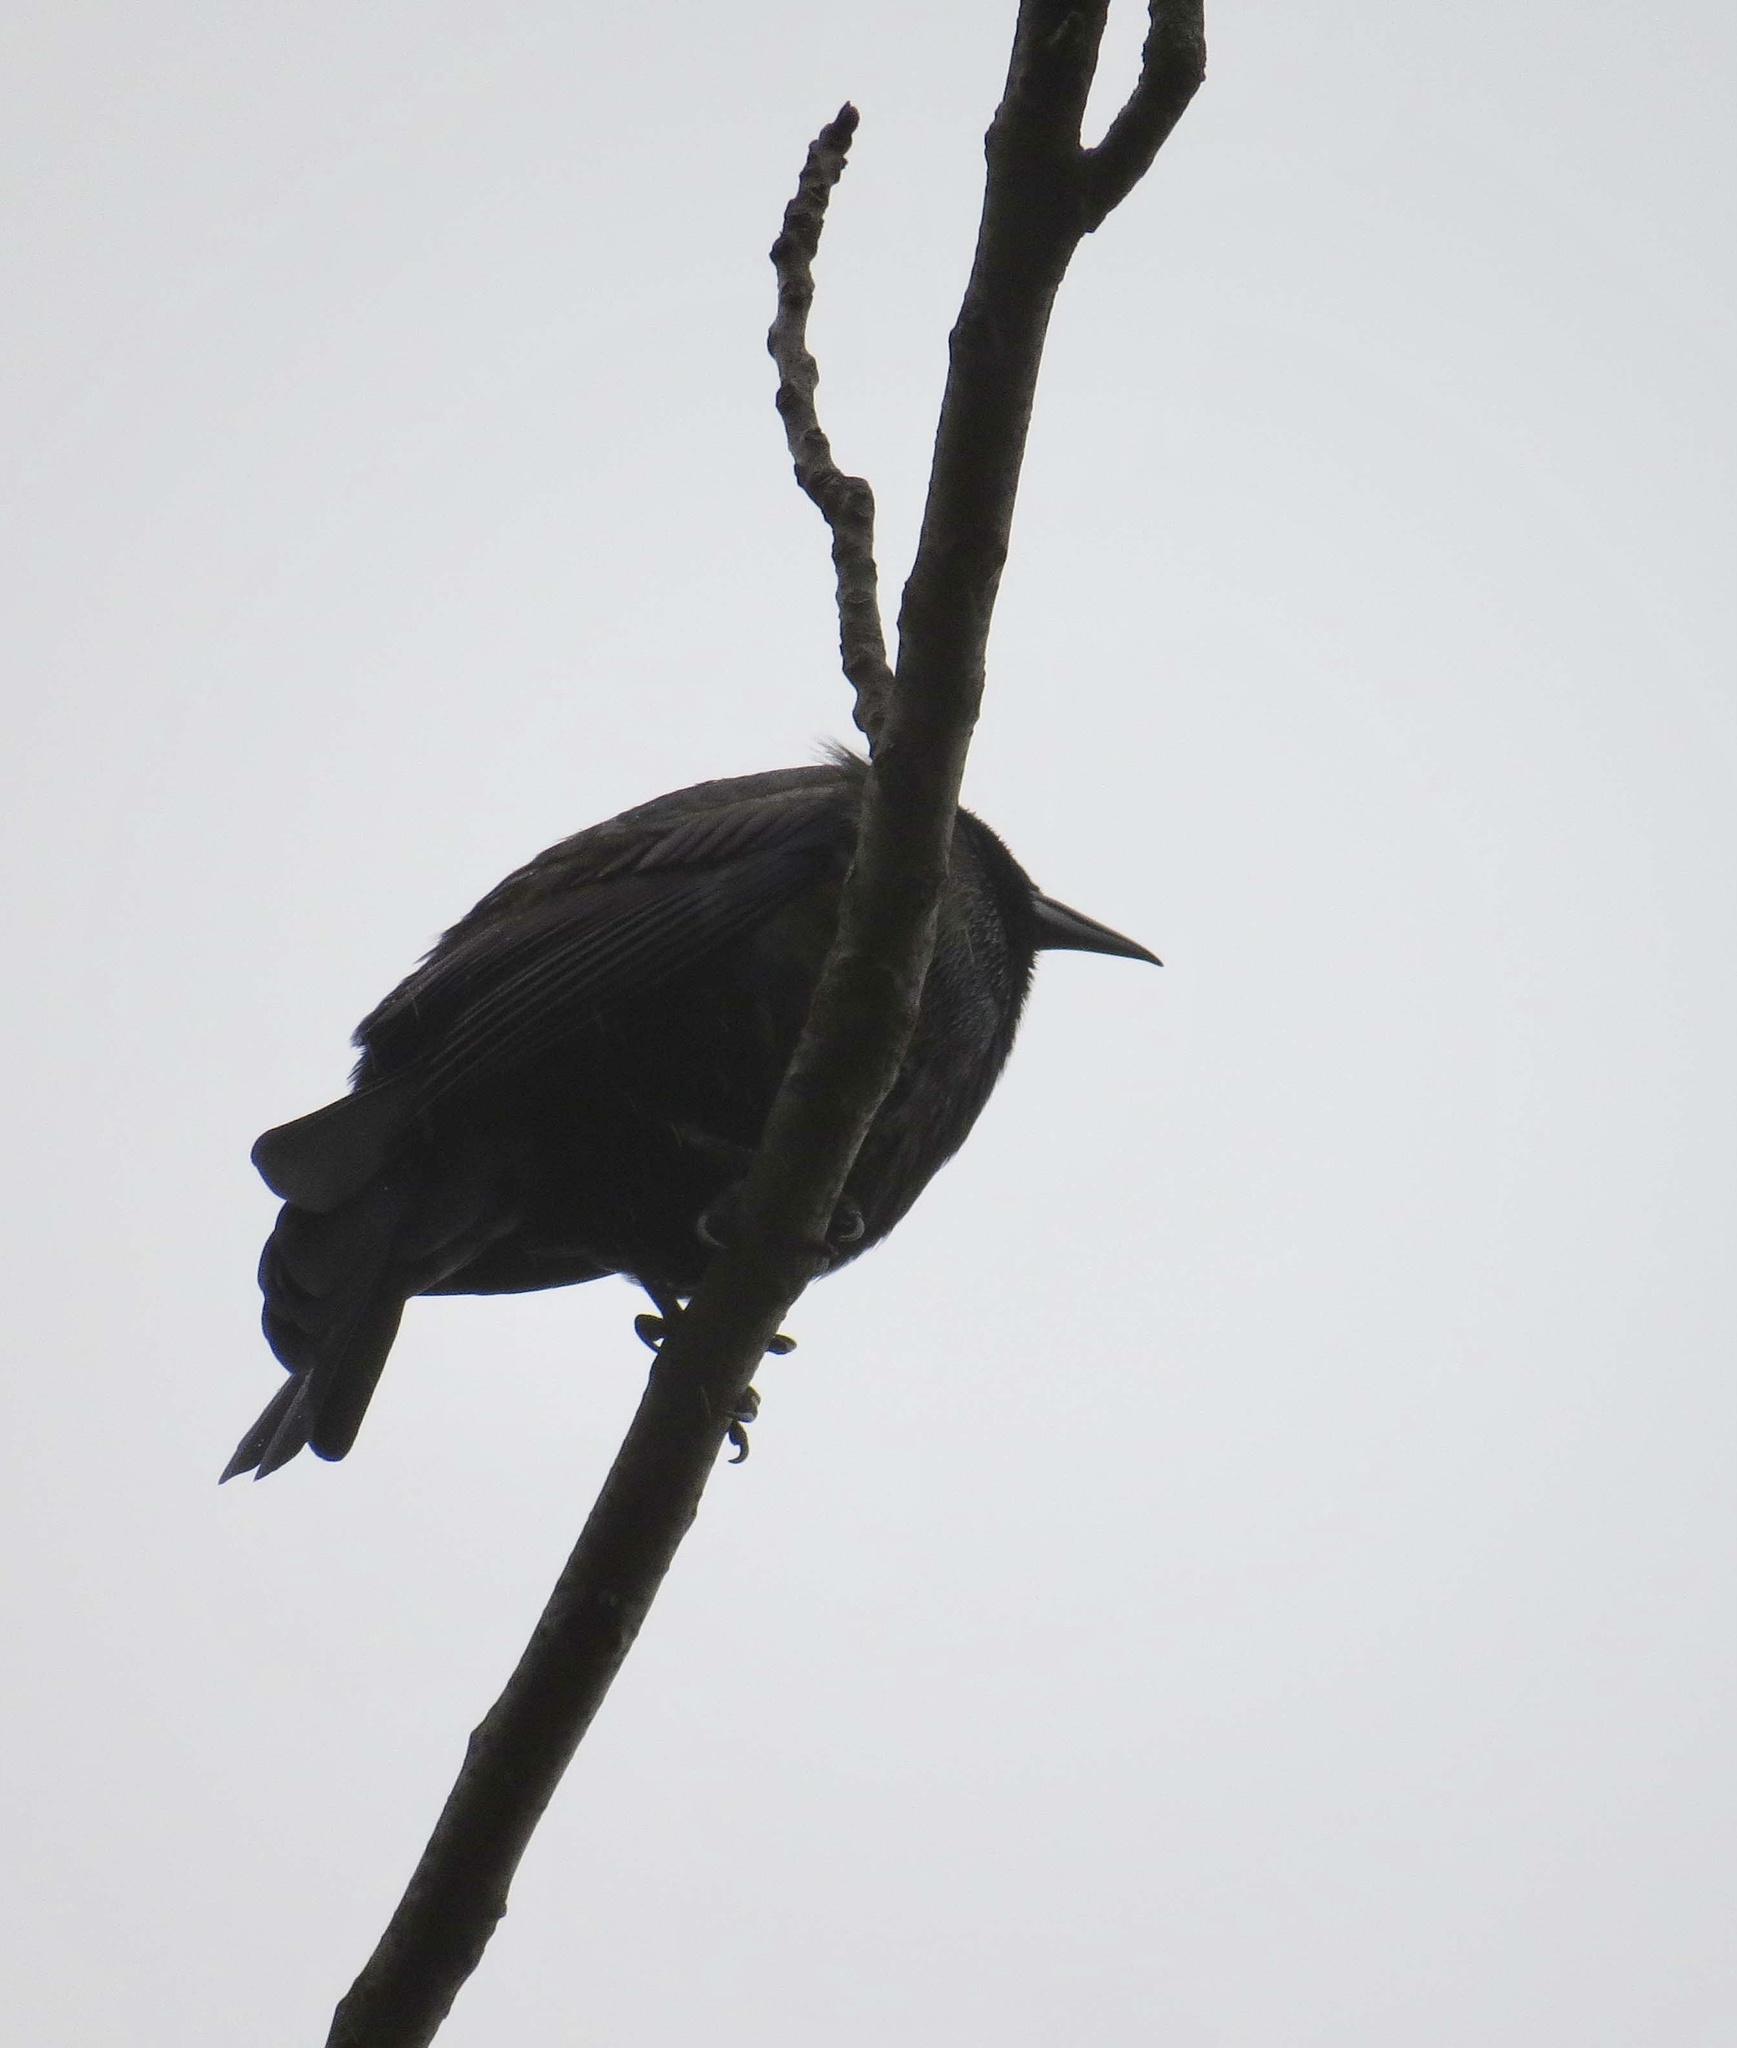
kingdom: Animalia
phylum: Chordata
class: Aves
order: Passeriformes
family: Icteridae
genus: Quiscalus
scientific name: Quiscalus quiscula
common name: Common grackle
